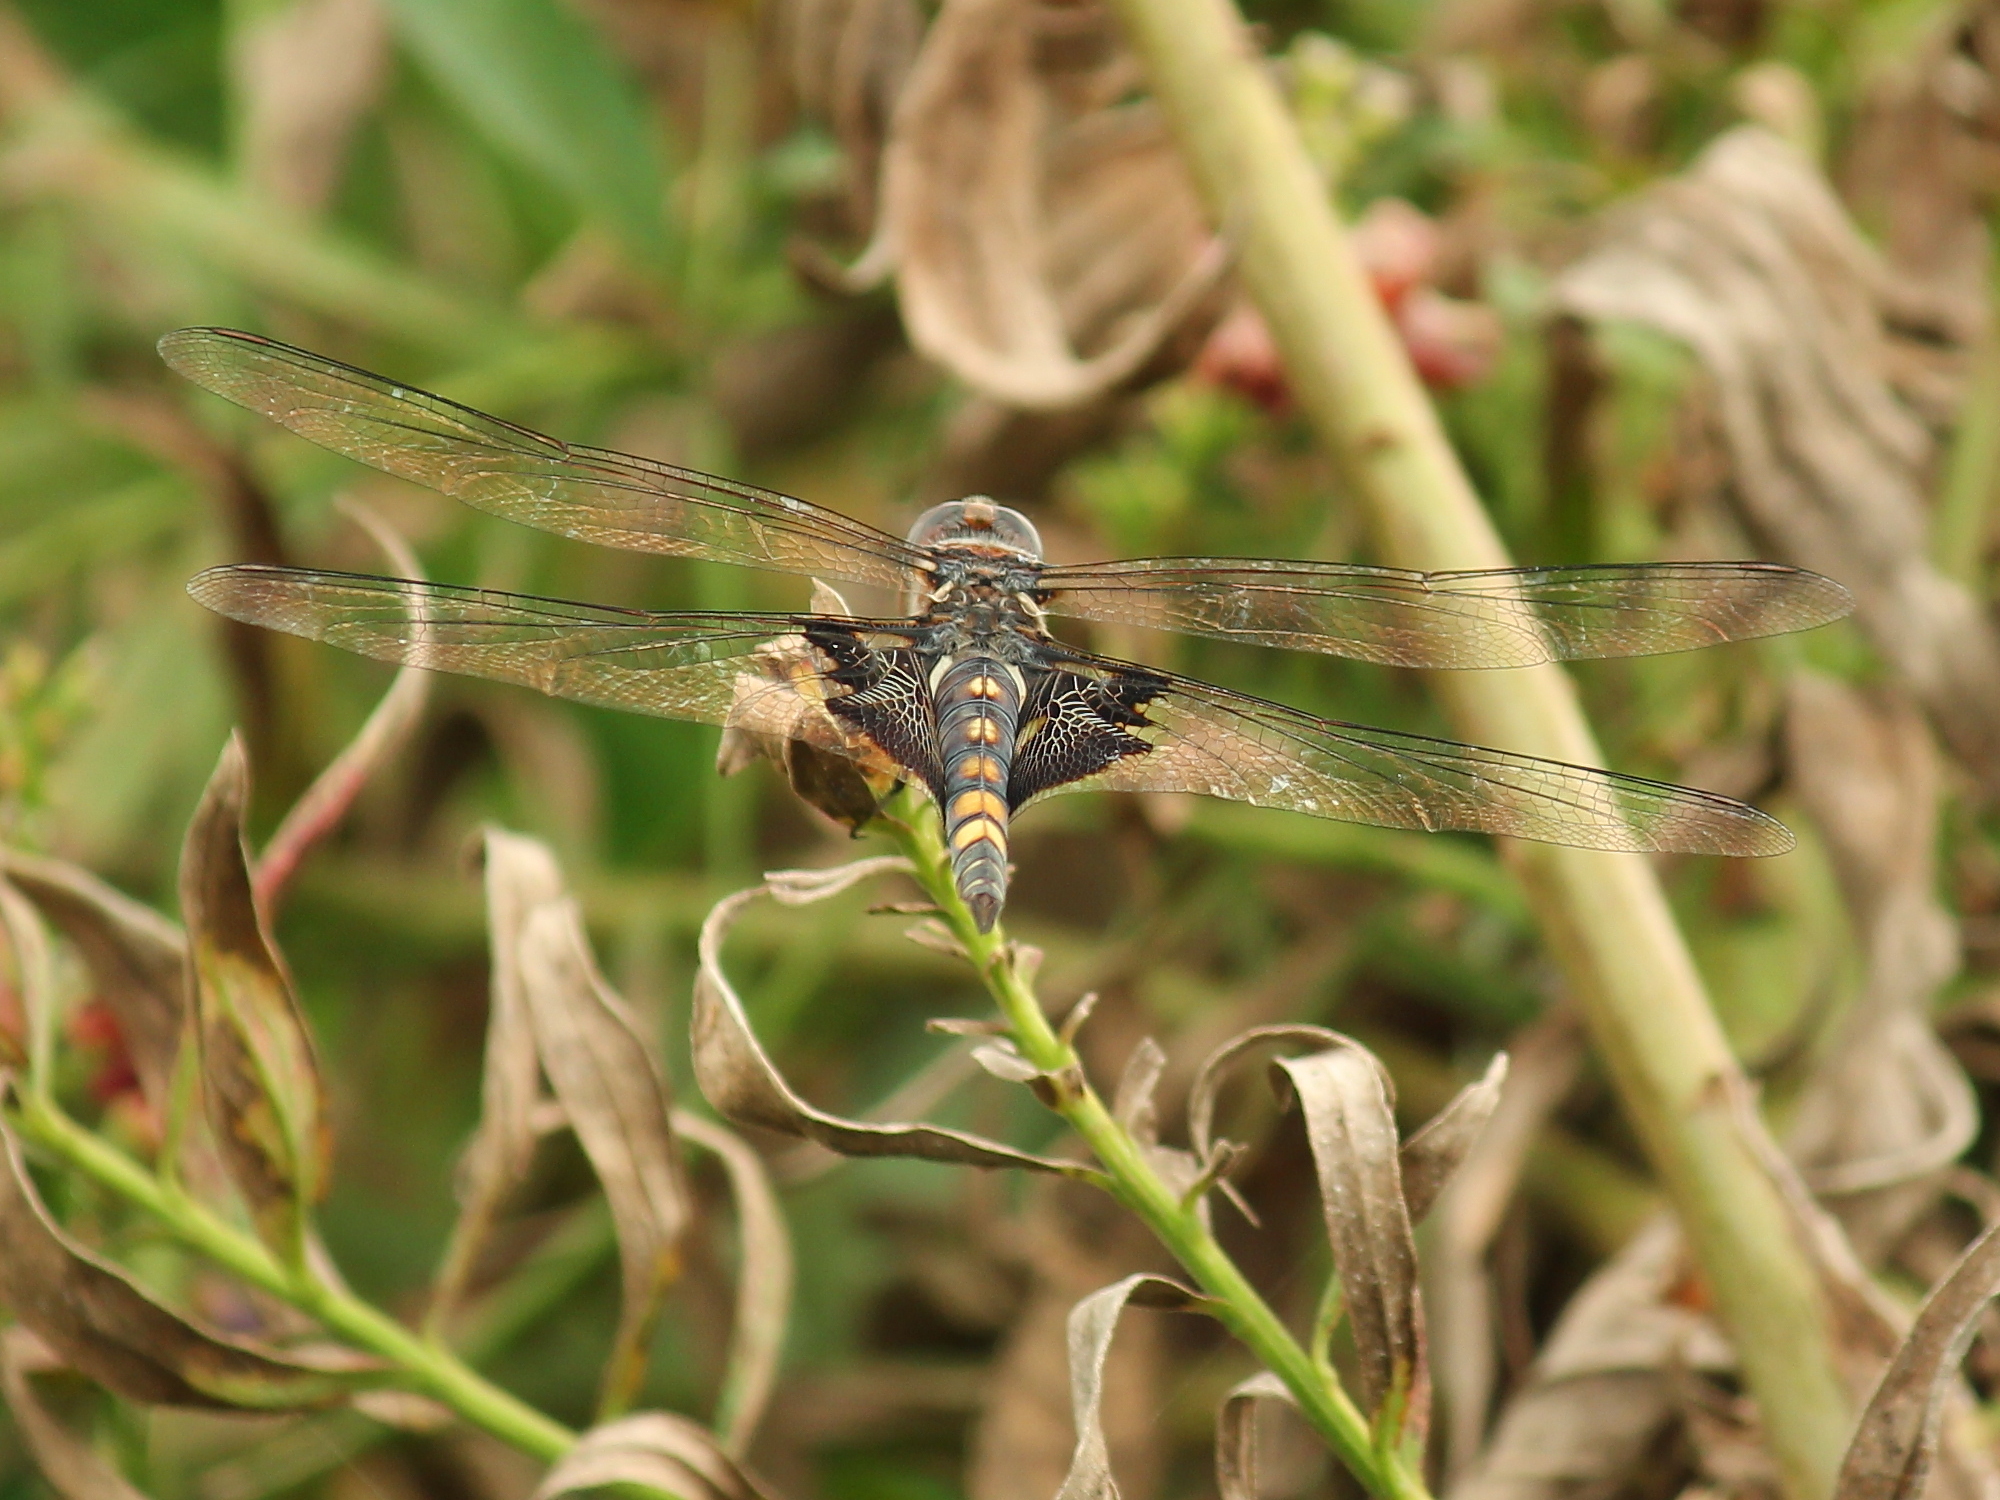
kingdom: Animalia
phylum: Arthropoda
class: Insecta
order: Odonata
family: Libellulidae
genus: Tramea
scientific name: Tramea lacerata
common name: Black saddlebags
